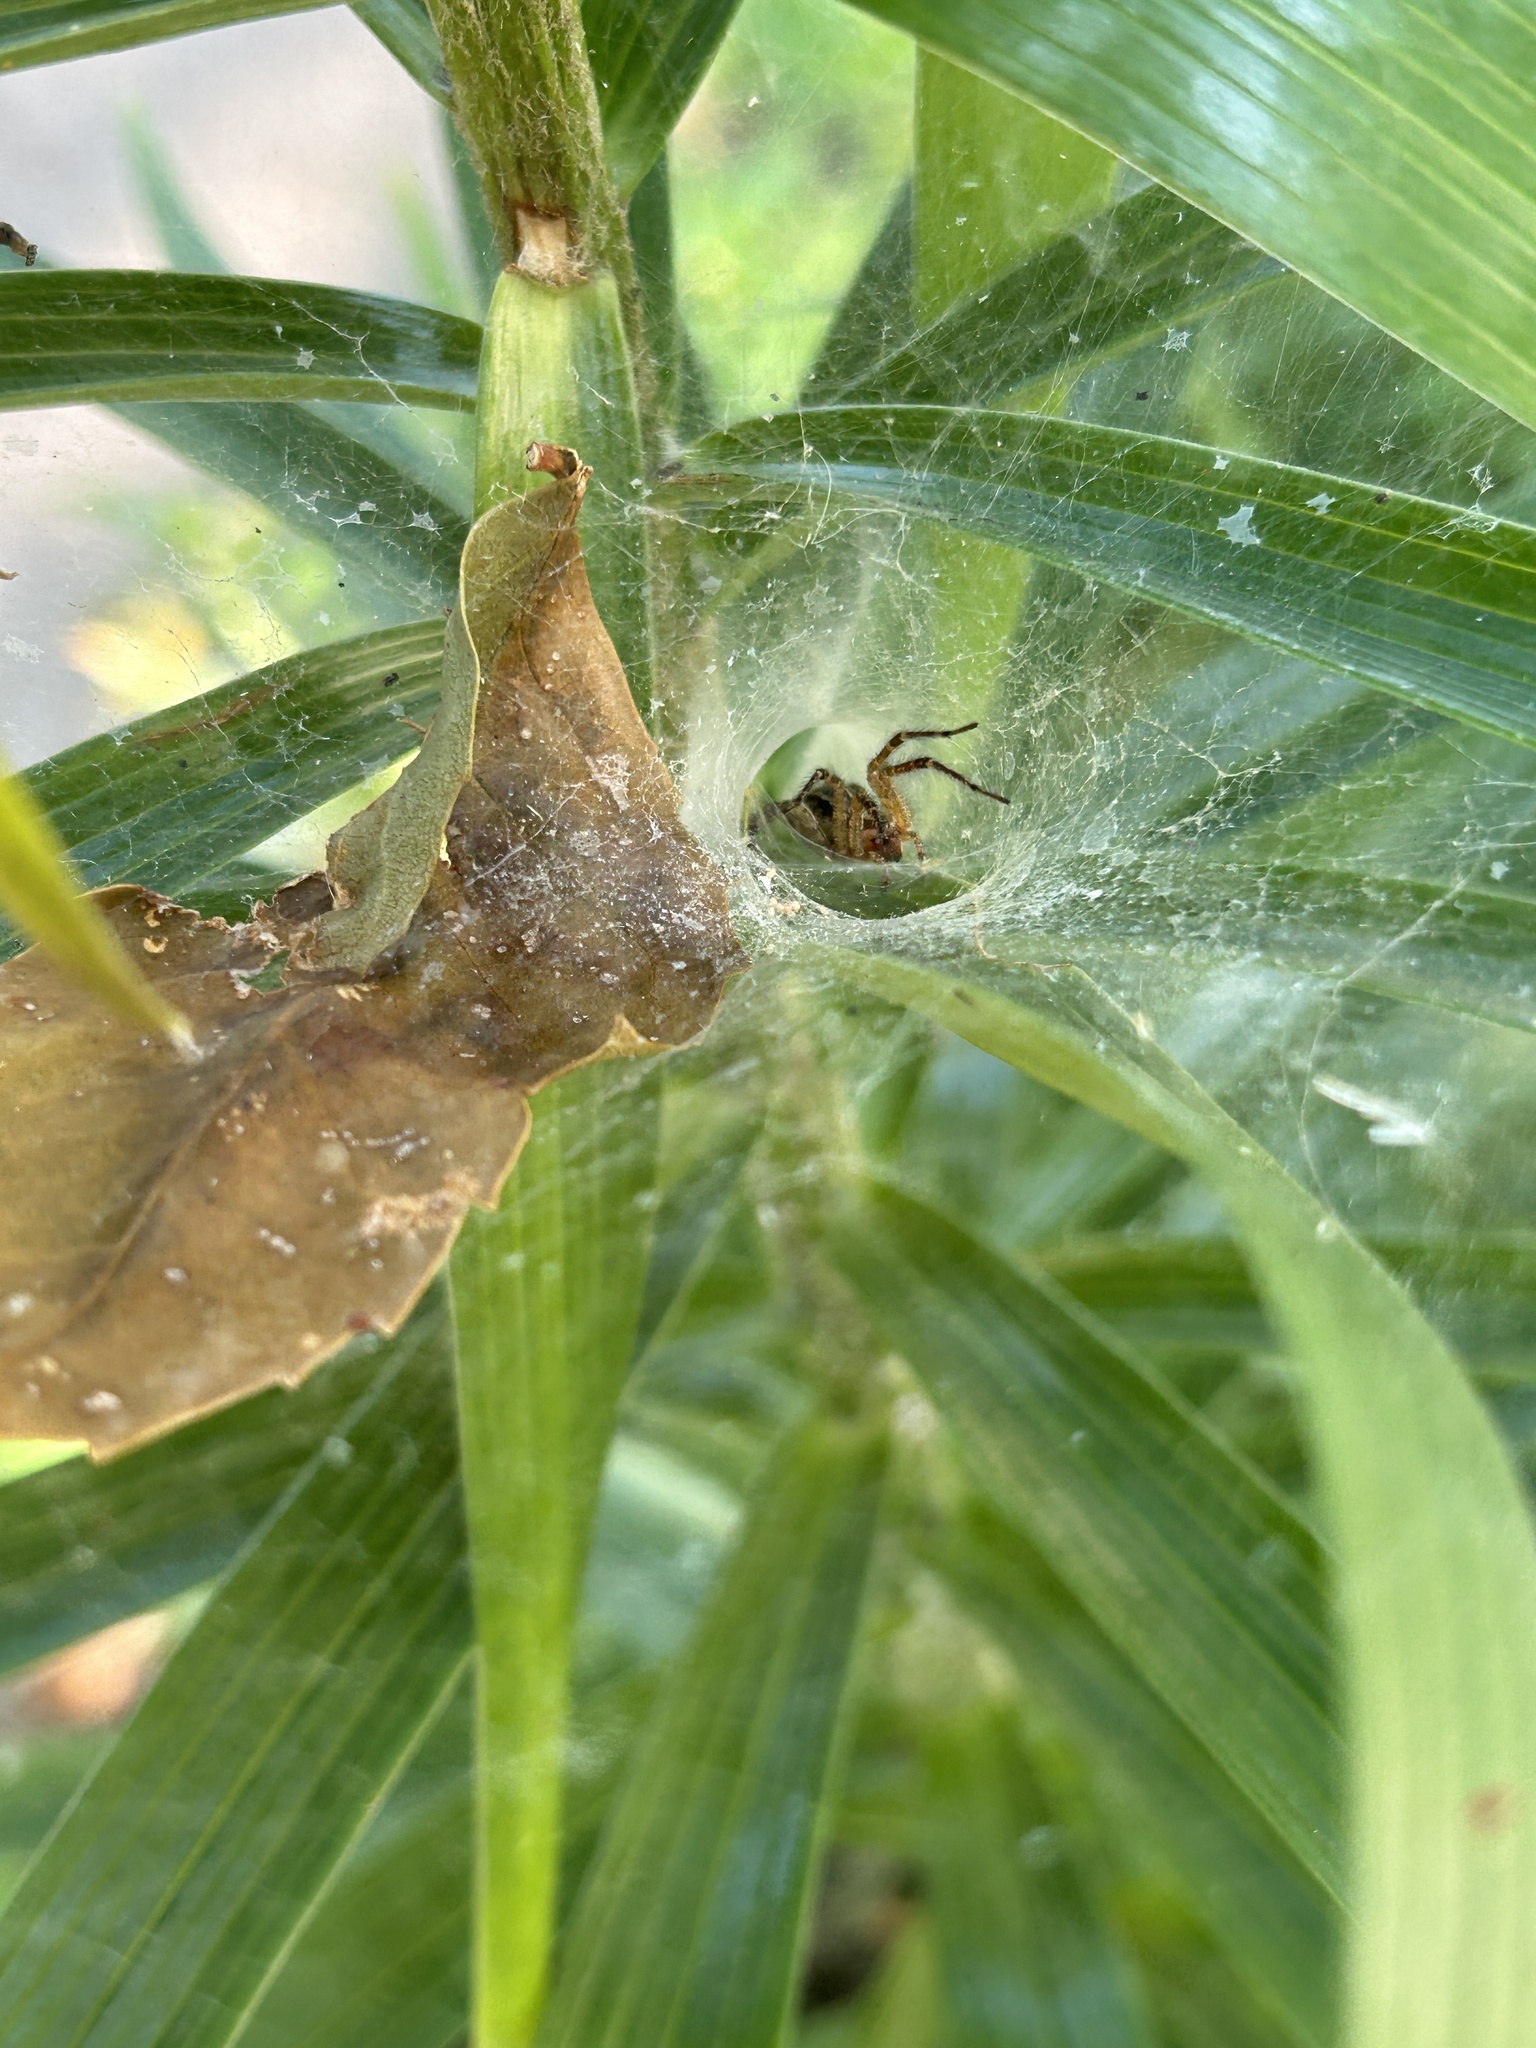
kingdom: Animalia
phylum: Arthropoda
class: Arachnida
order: Araneae
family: Agelenidae
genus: Agelenopsis
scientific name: Agelenopsis
